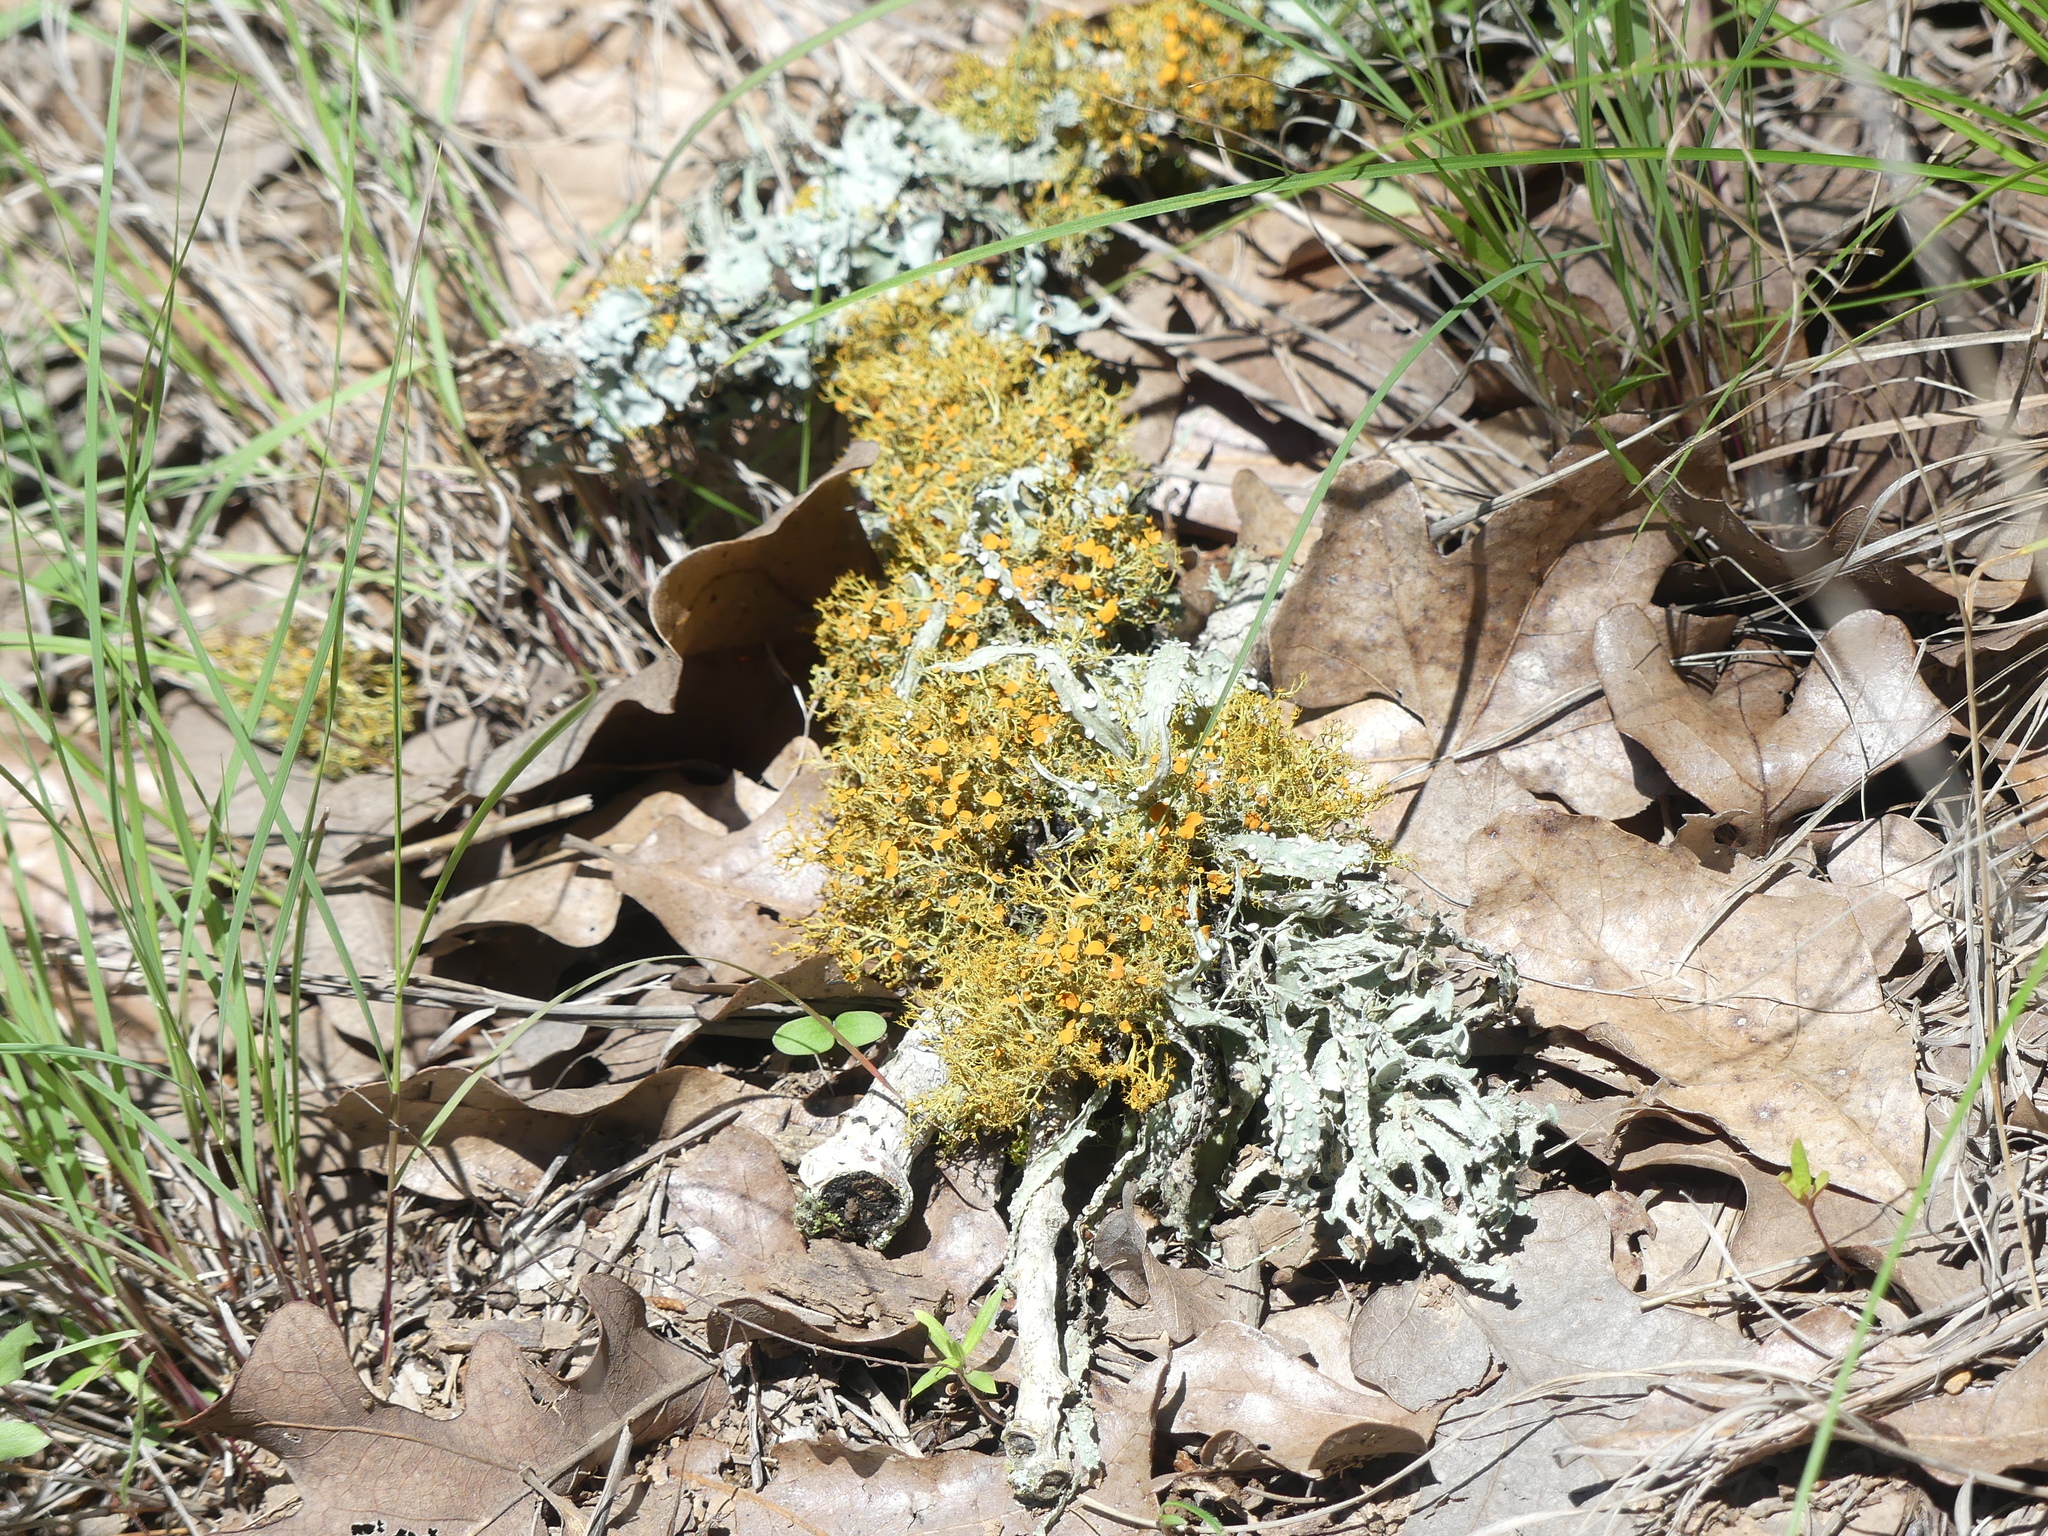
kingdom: Fungi
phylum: Ascomycota
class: Lecanoromycetes
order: Teloschistales
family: Teloschistaceae
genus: Teloschistes
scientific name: Teloschistes exilis
